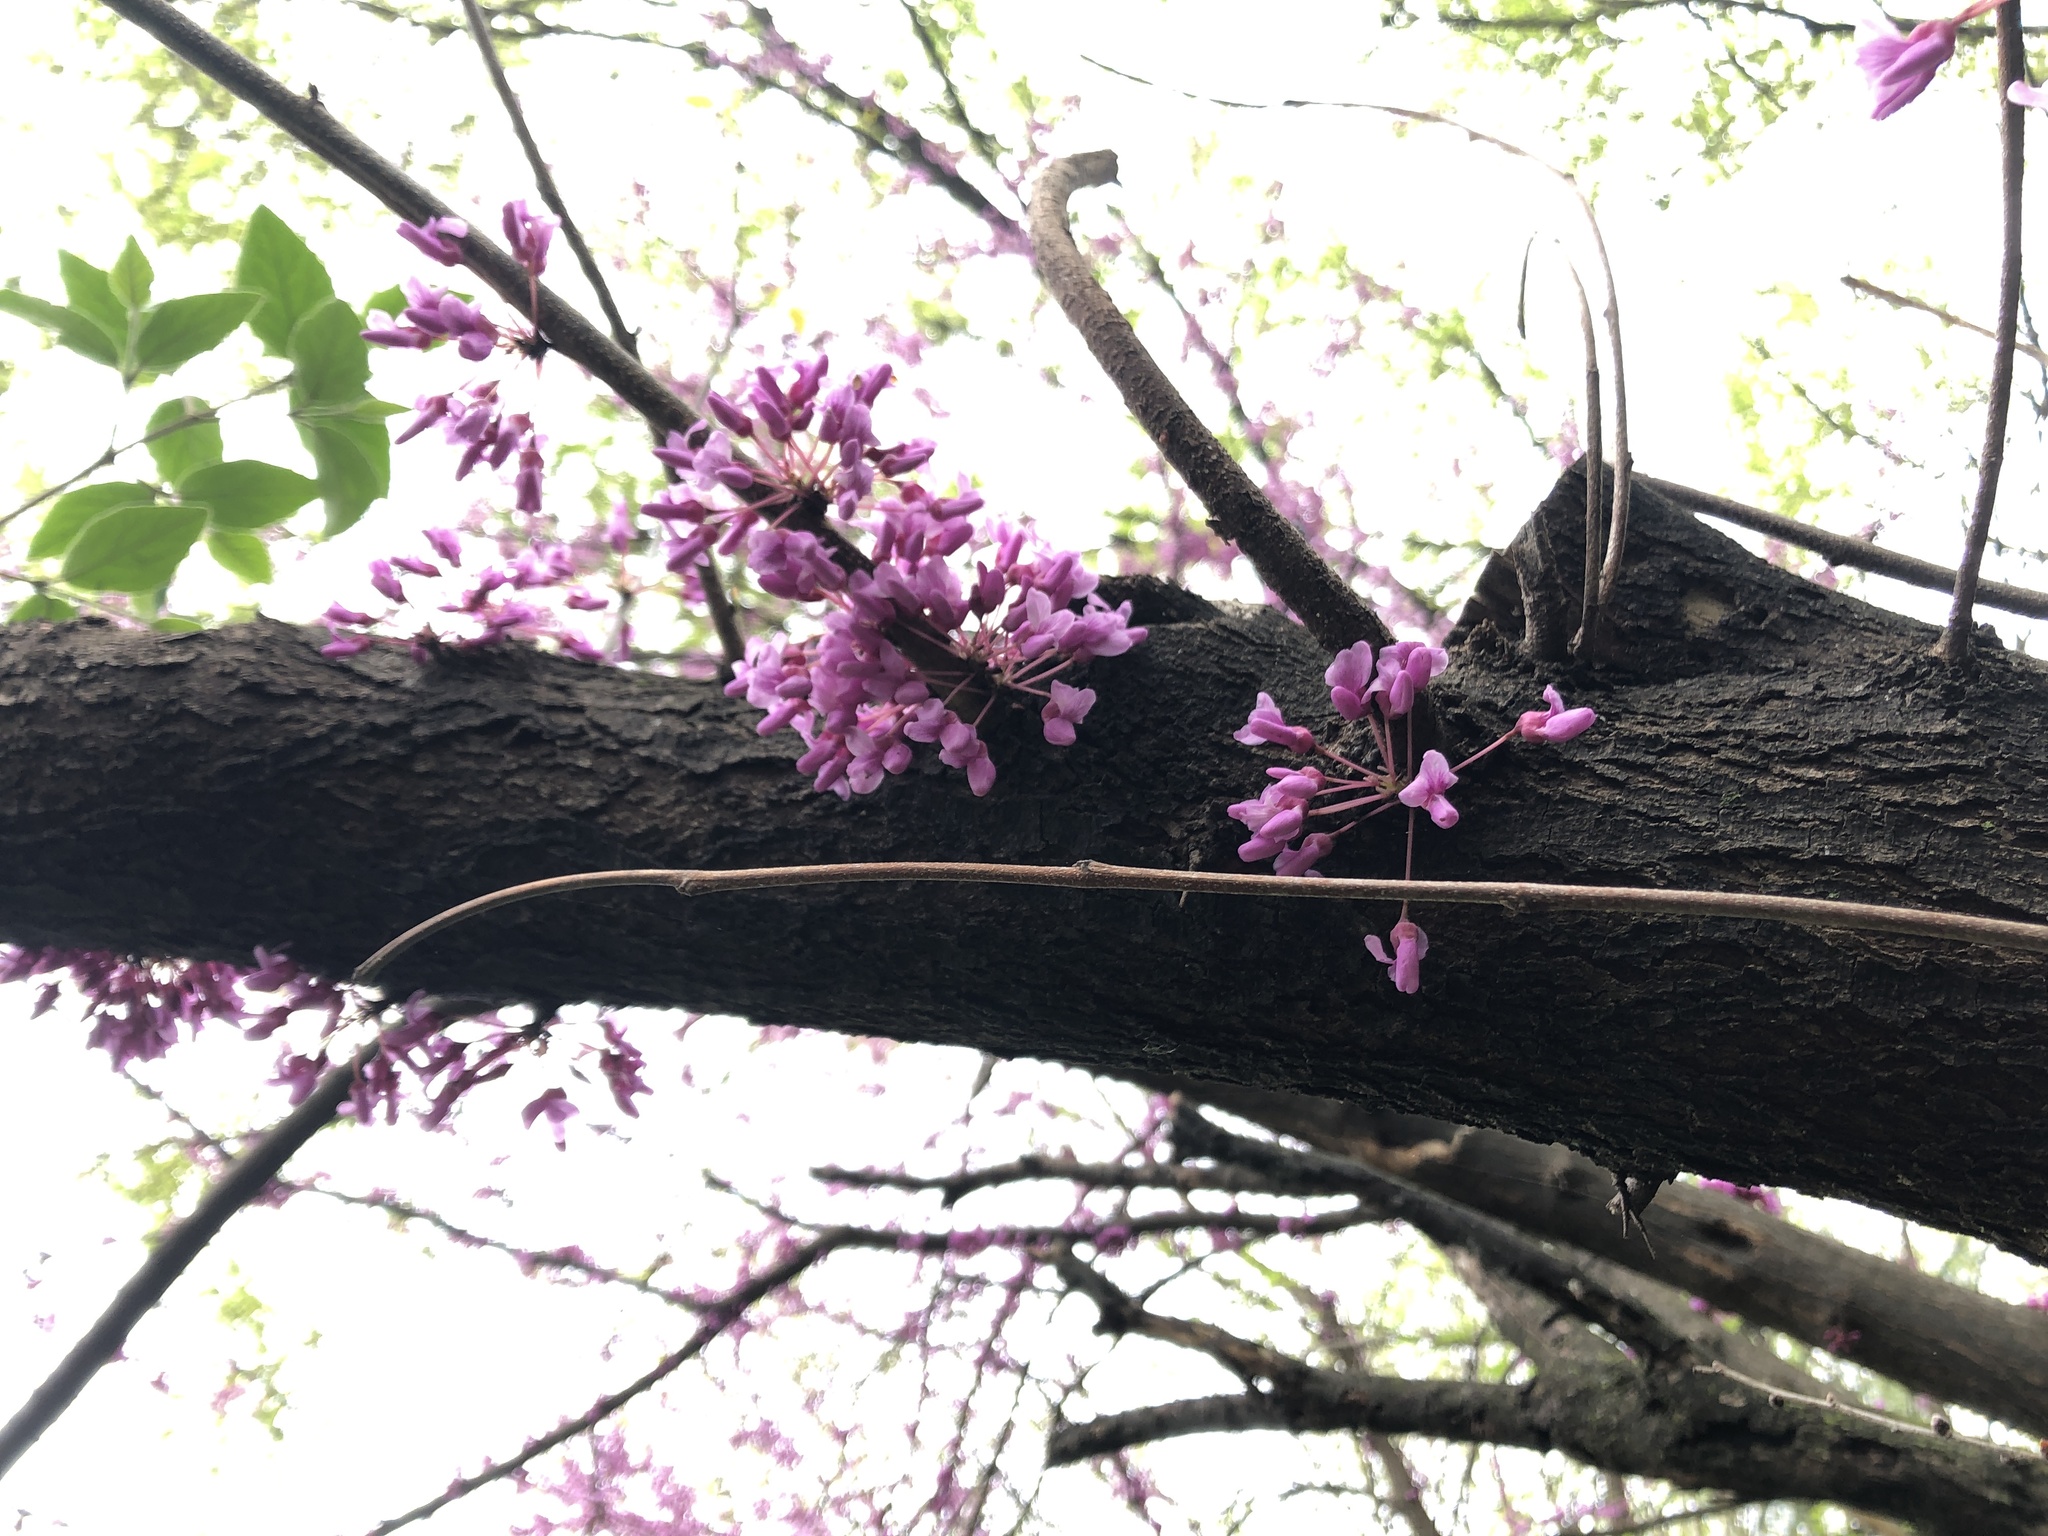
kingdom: Plantae
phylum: Tracheophyta
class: Magnoliopsida
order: Fabales
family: Fabaceae
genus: Cercis
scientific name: Cercis canadensis
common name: Eastern redbud
